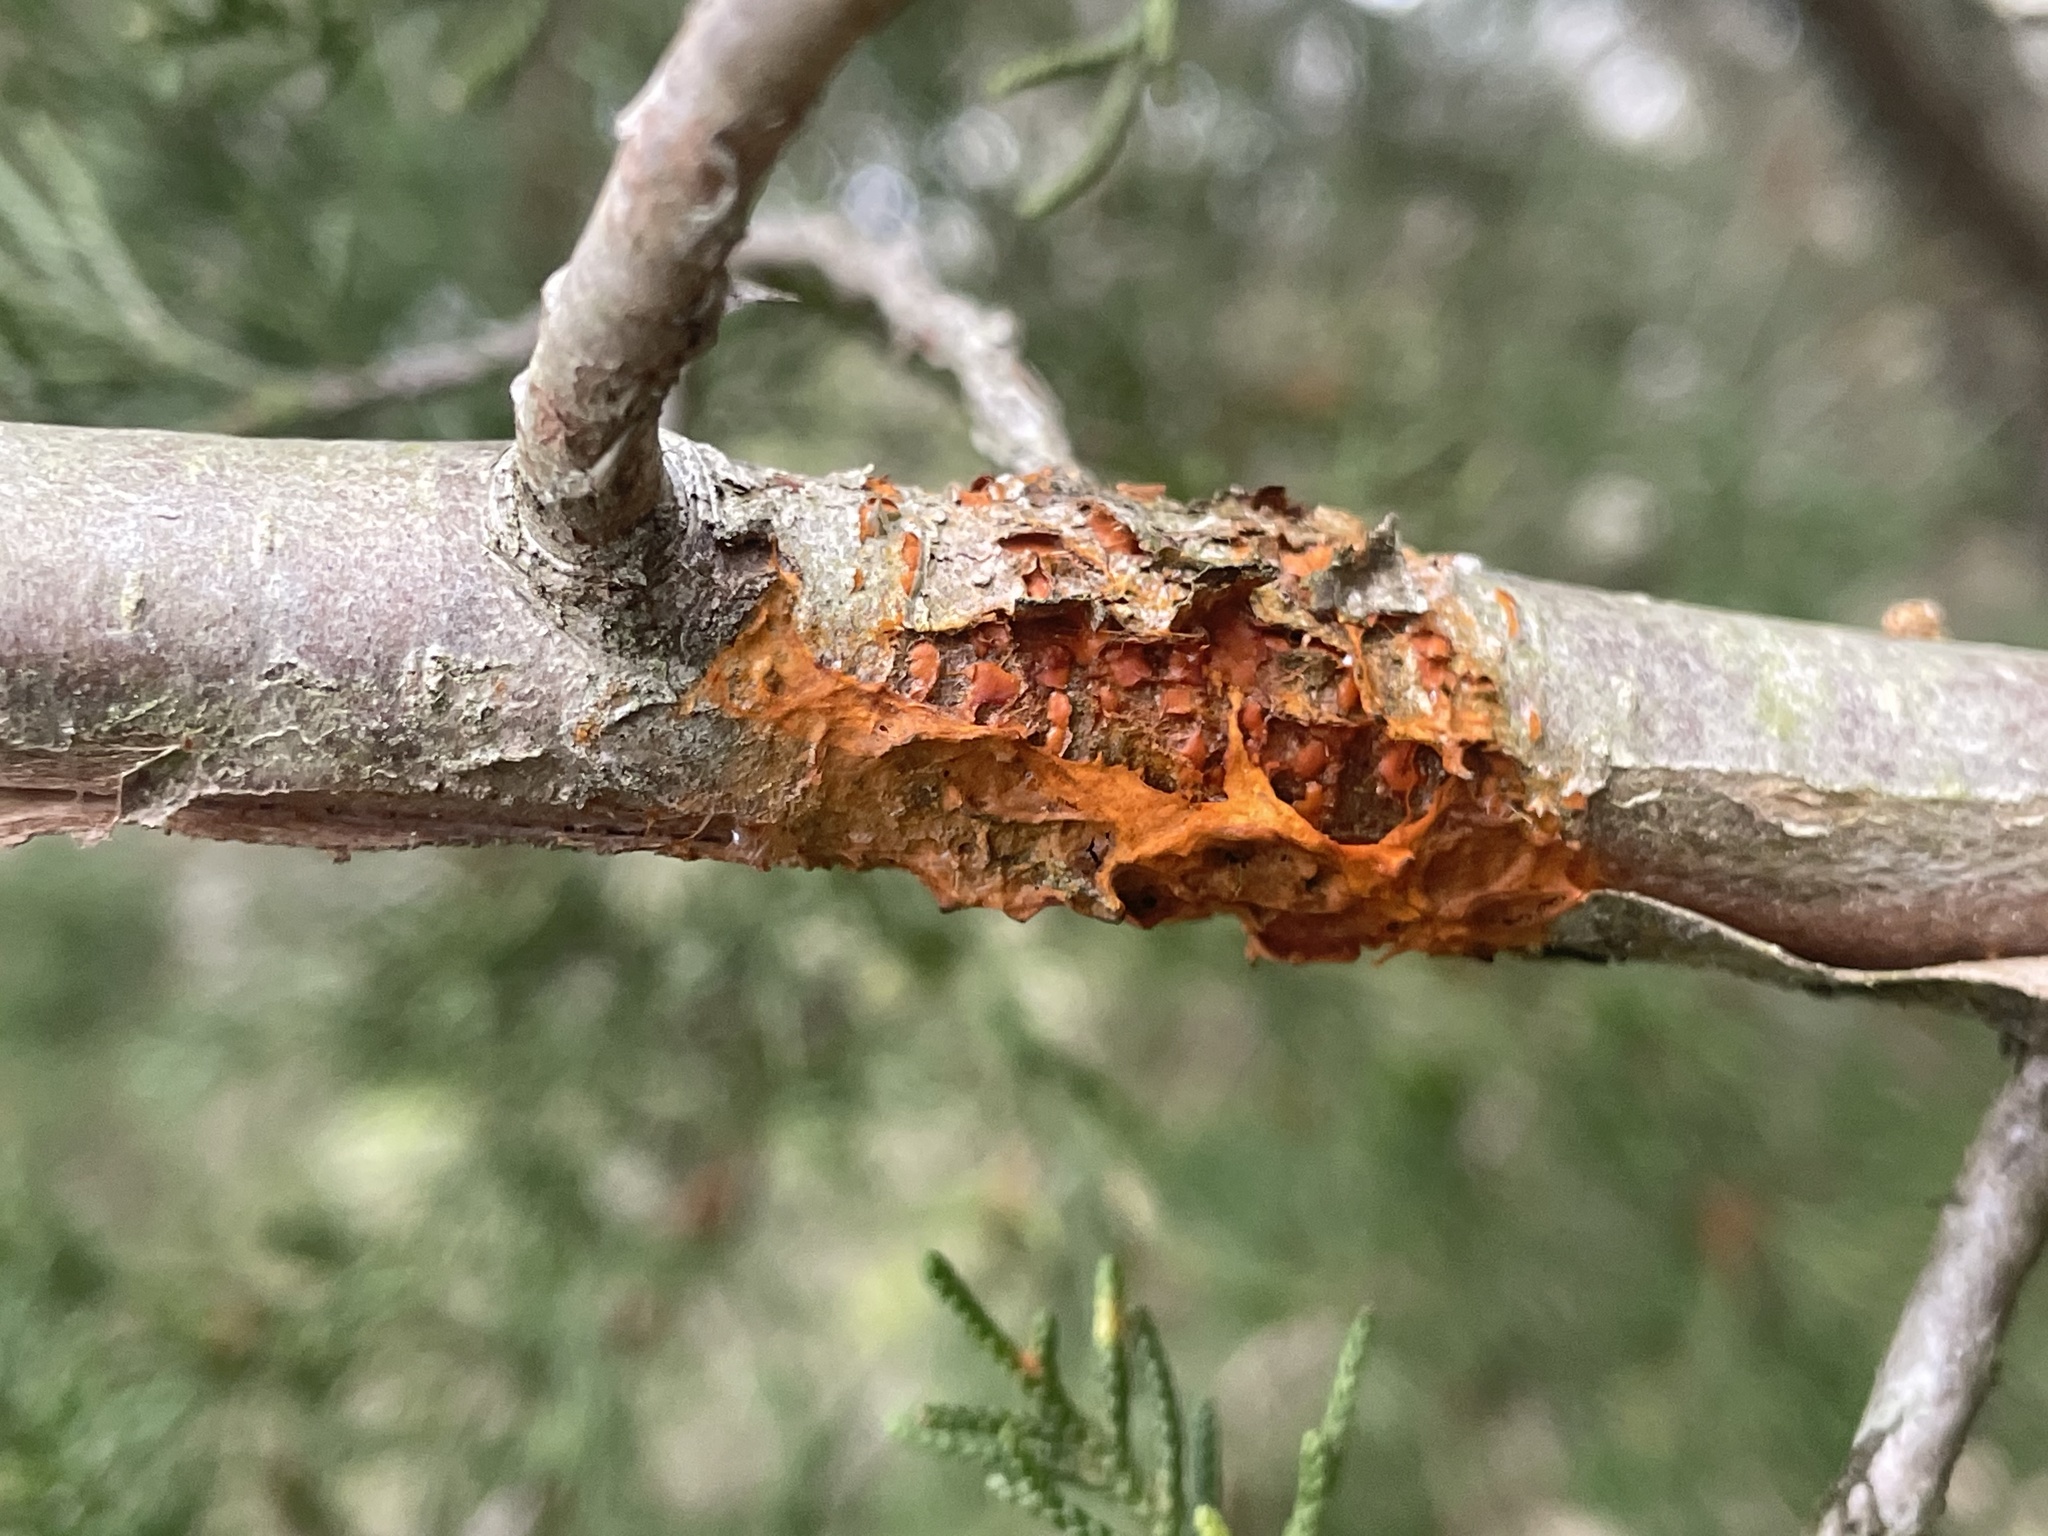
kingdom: Fungi
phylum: Basidiomycota
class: Pucciniomycetes
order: Pucciniales
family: Gymnosporangiaceae
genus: Gymnosporangium
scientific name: Gymnosporangium clavipes
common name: Quince rust
